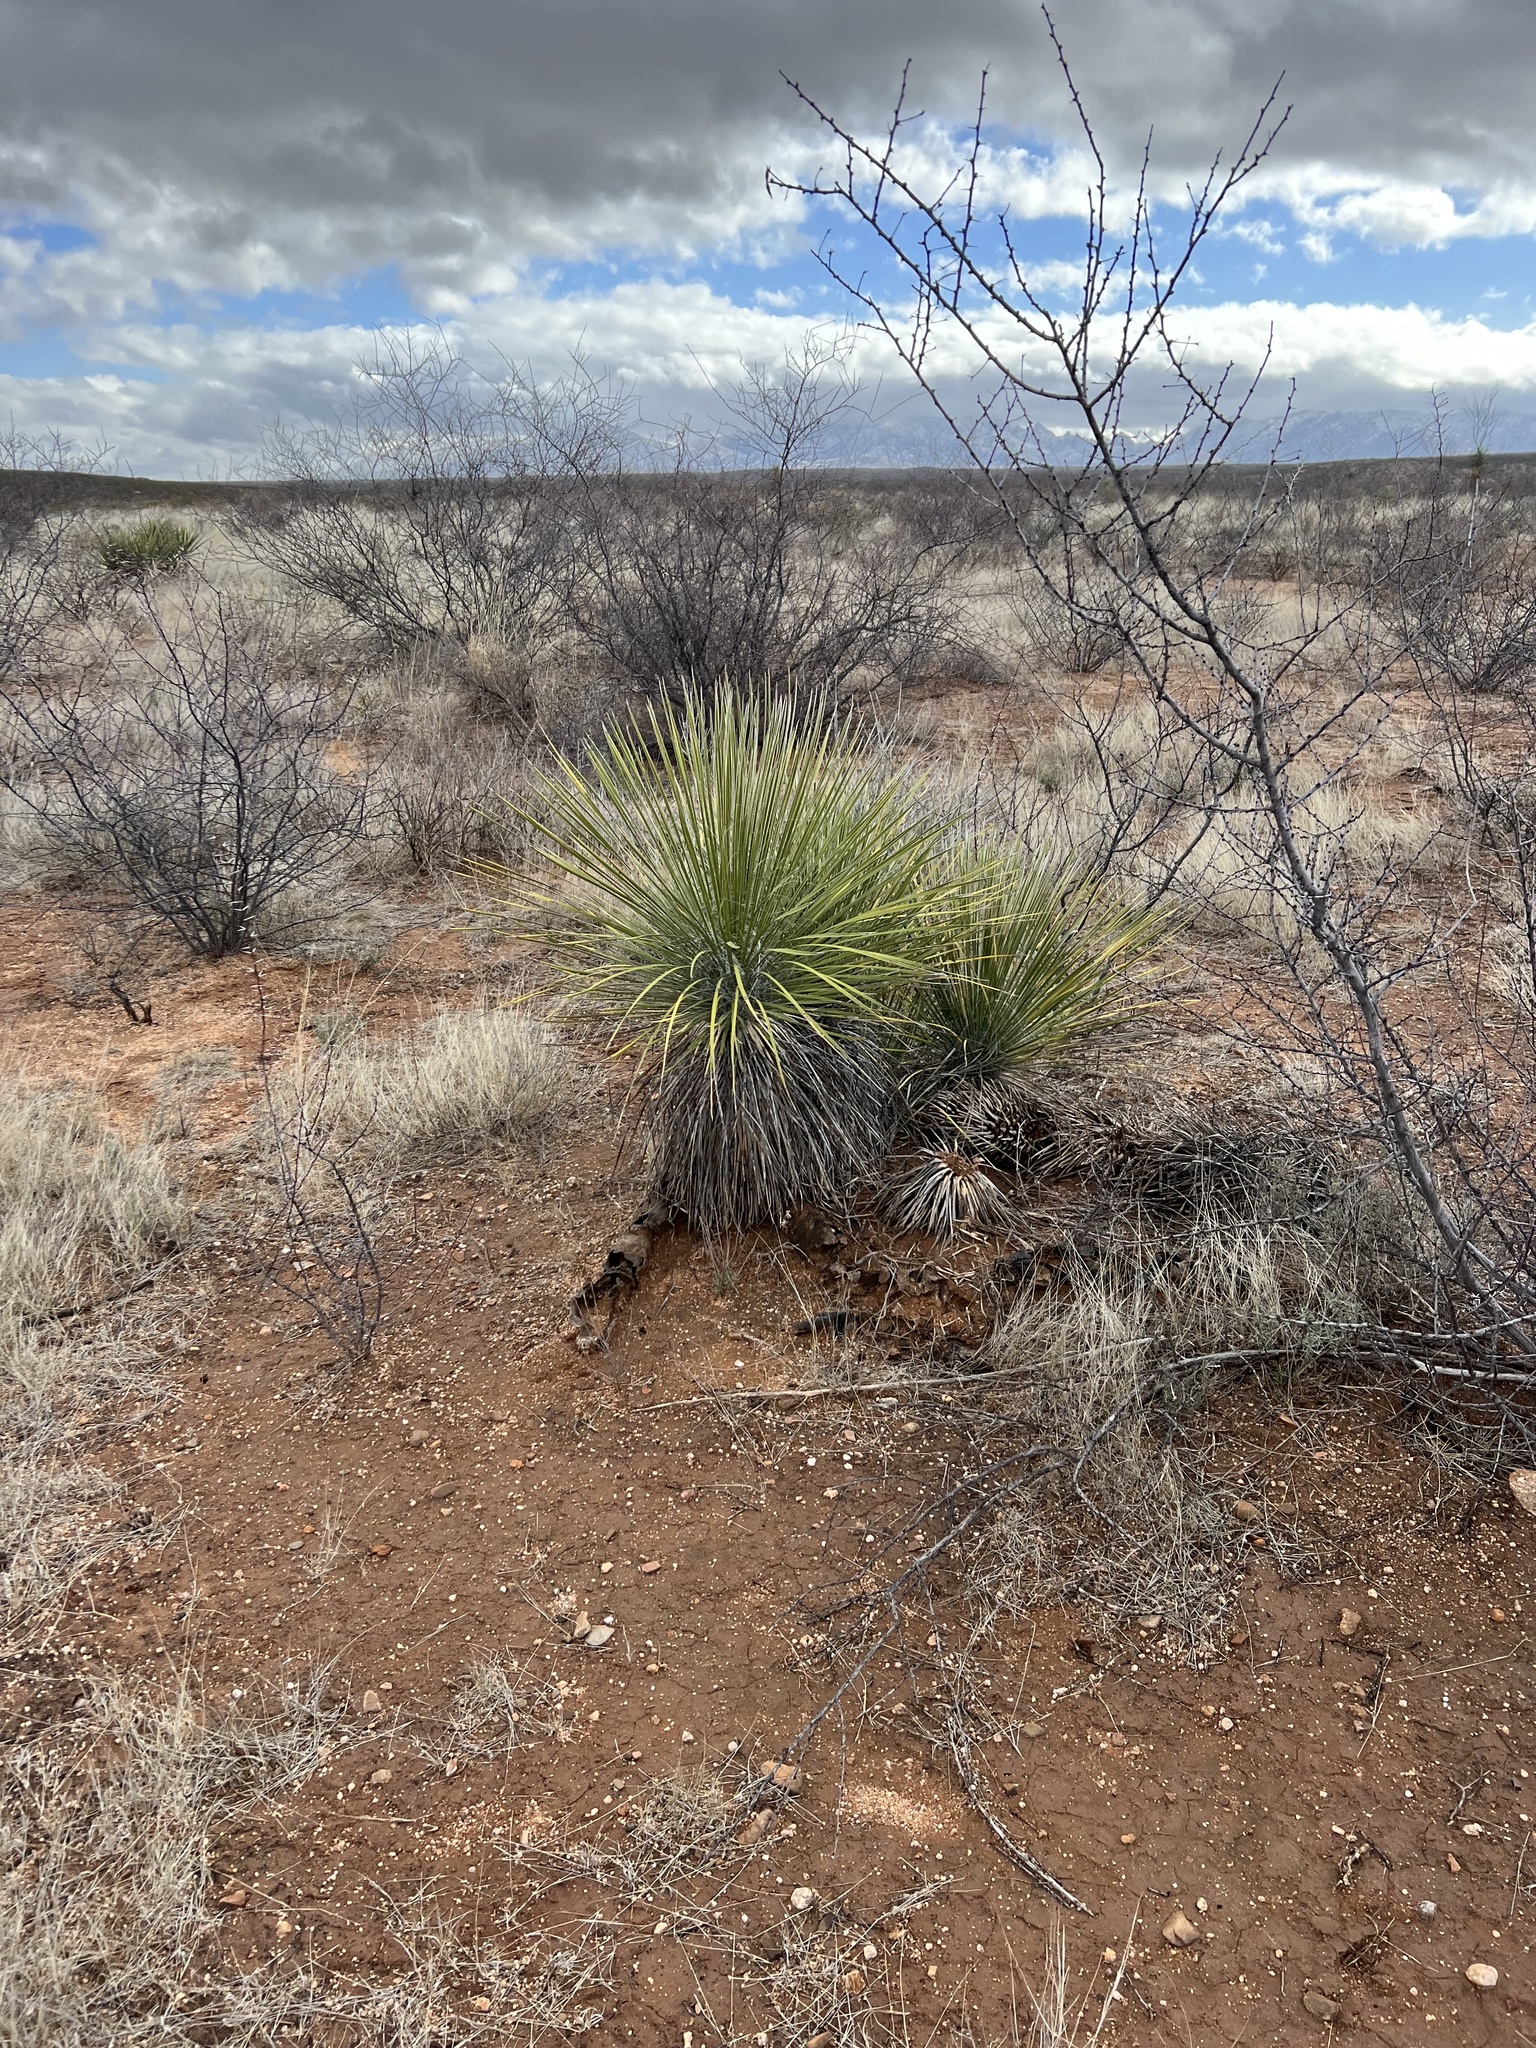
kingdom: Plantae
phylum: Tracheophyta
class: Liliopsida
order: Asparagales
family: Asparagaceae
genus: Yucca
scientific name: Yucca elata
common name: Palmella
